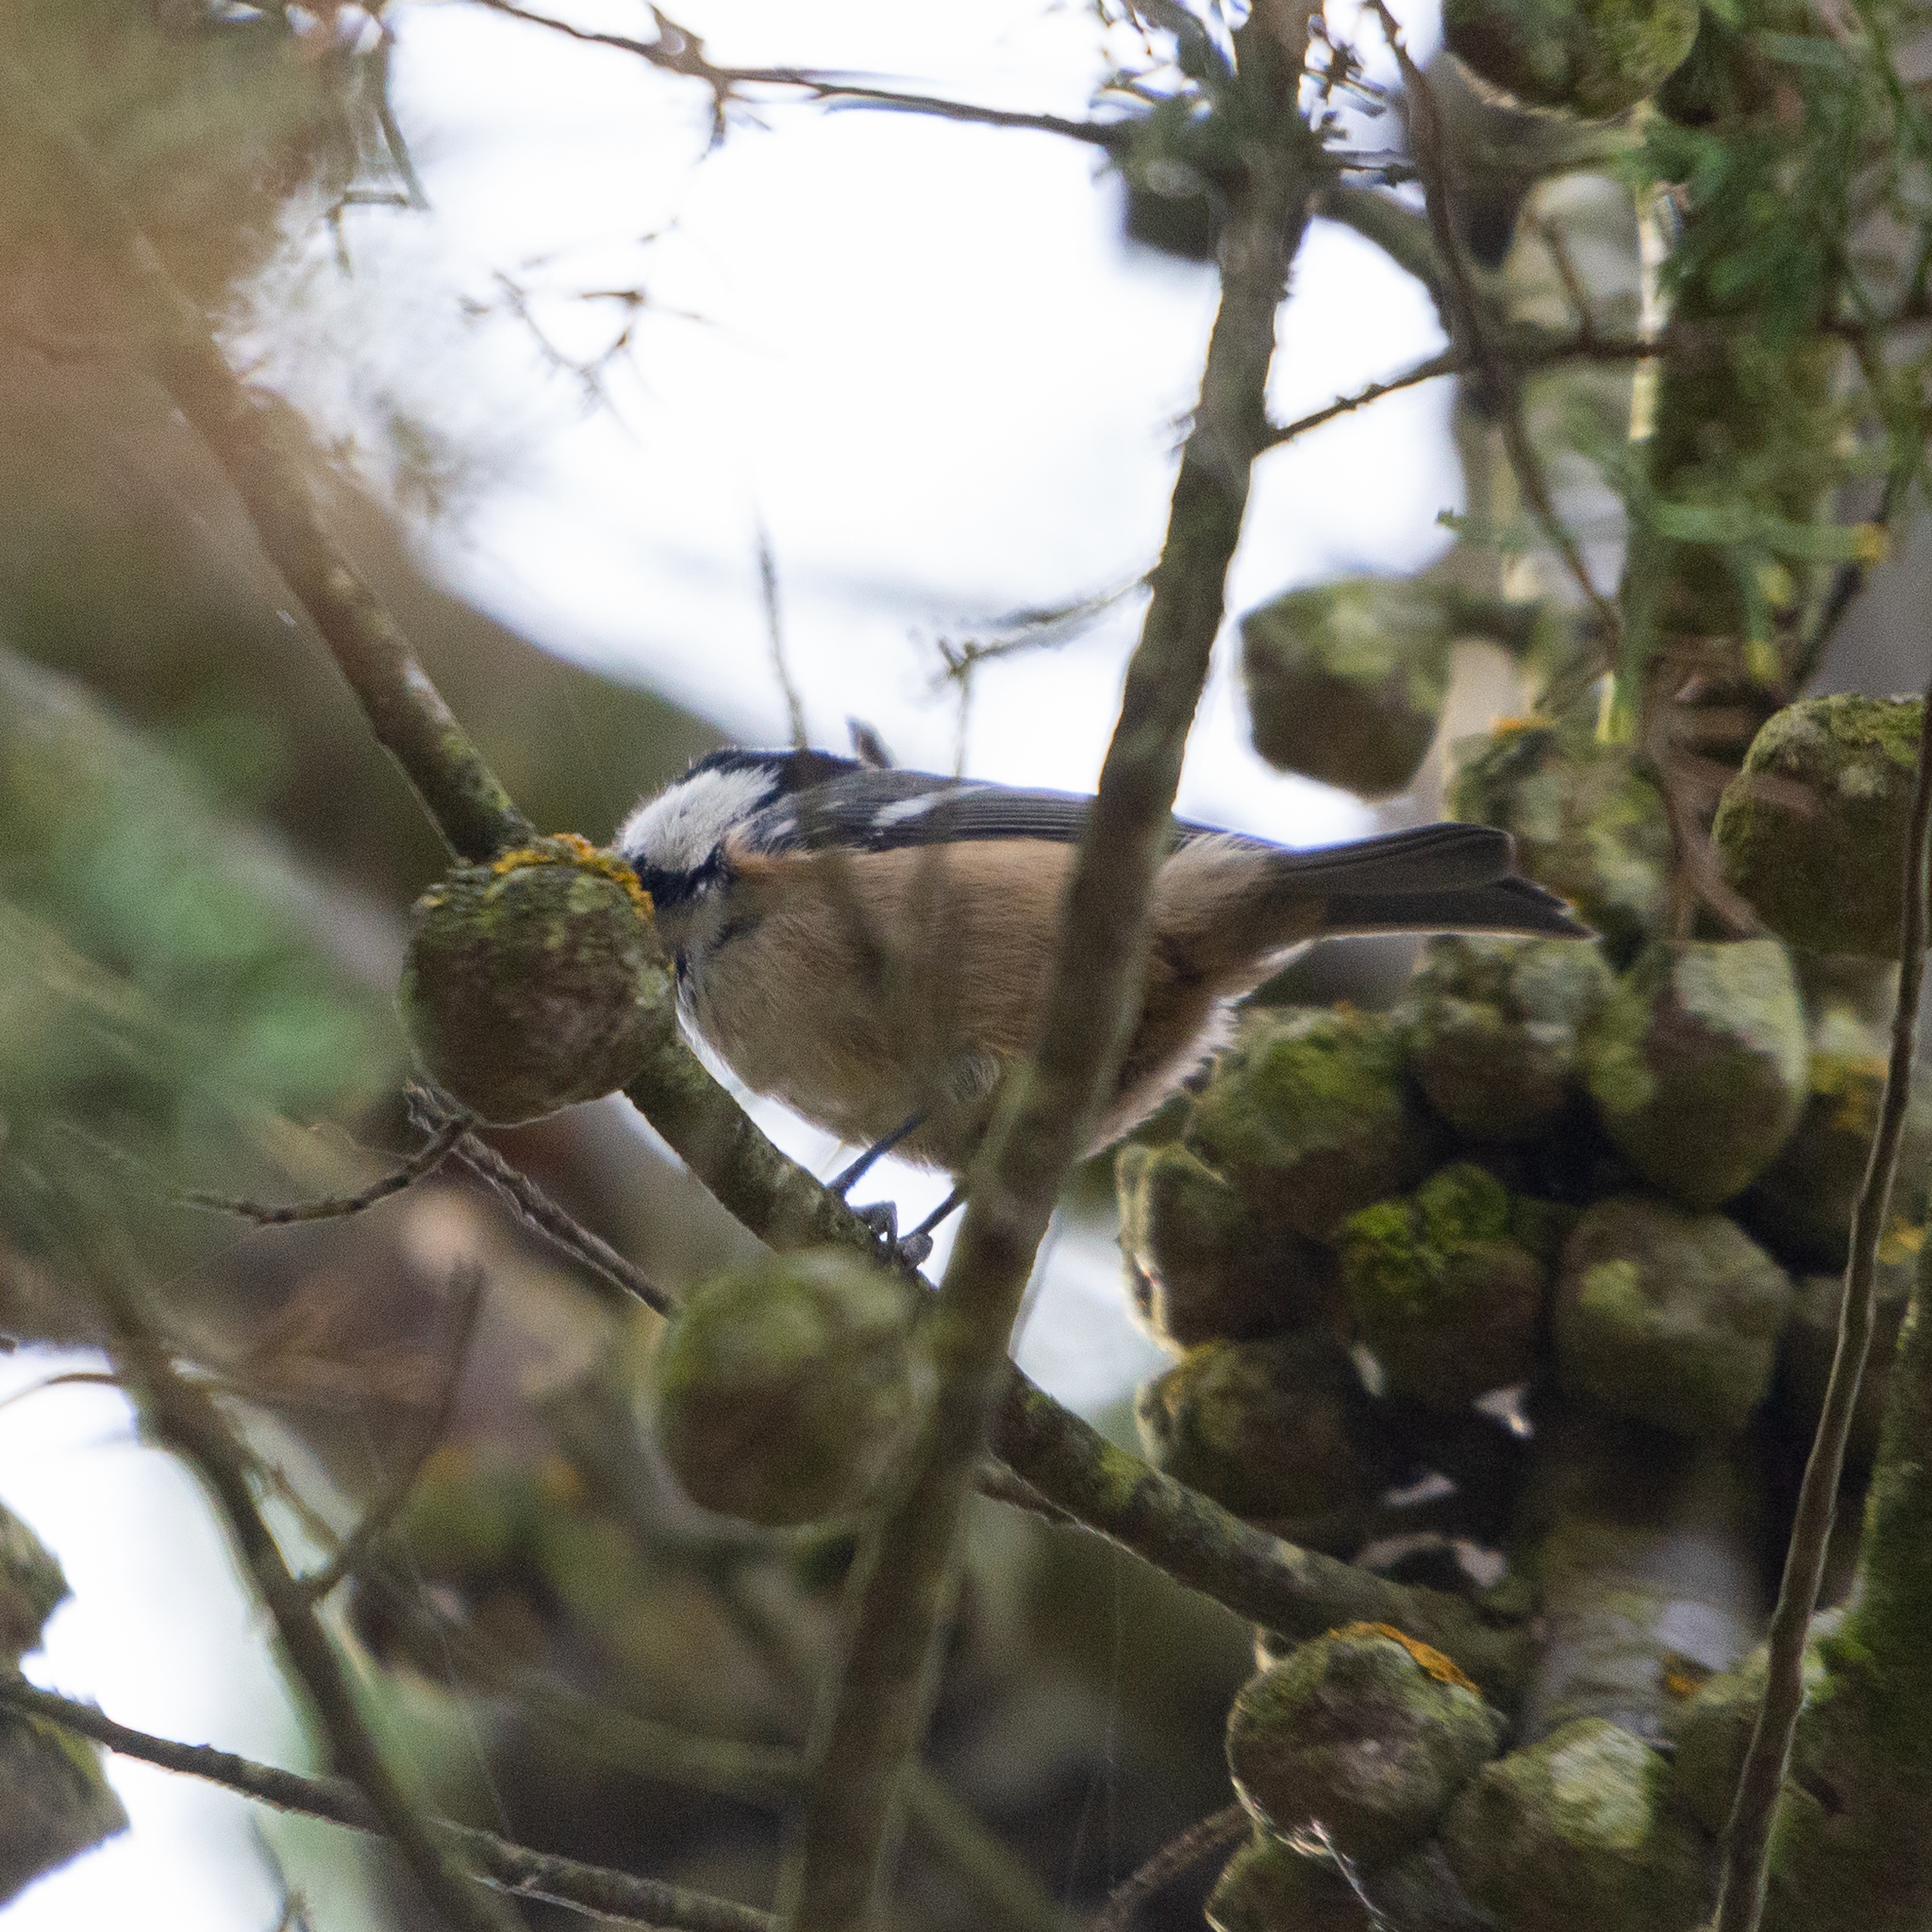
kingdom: Animalia
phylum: Chordata
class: Aves
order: Passeriformes
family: Paridae
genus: Periparus
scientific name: Periparus ater
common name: Coal tit
